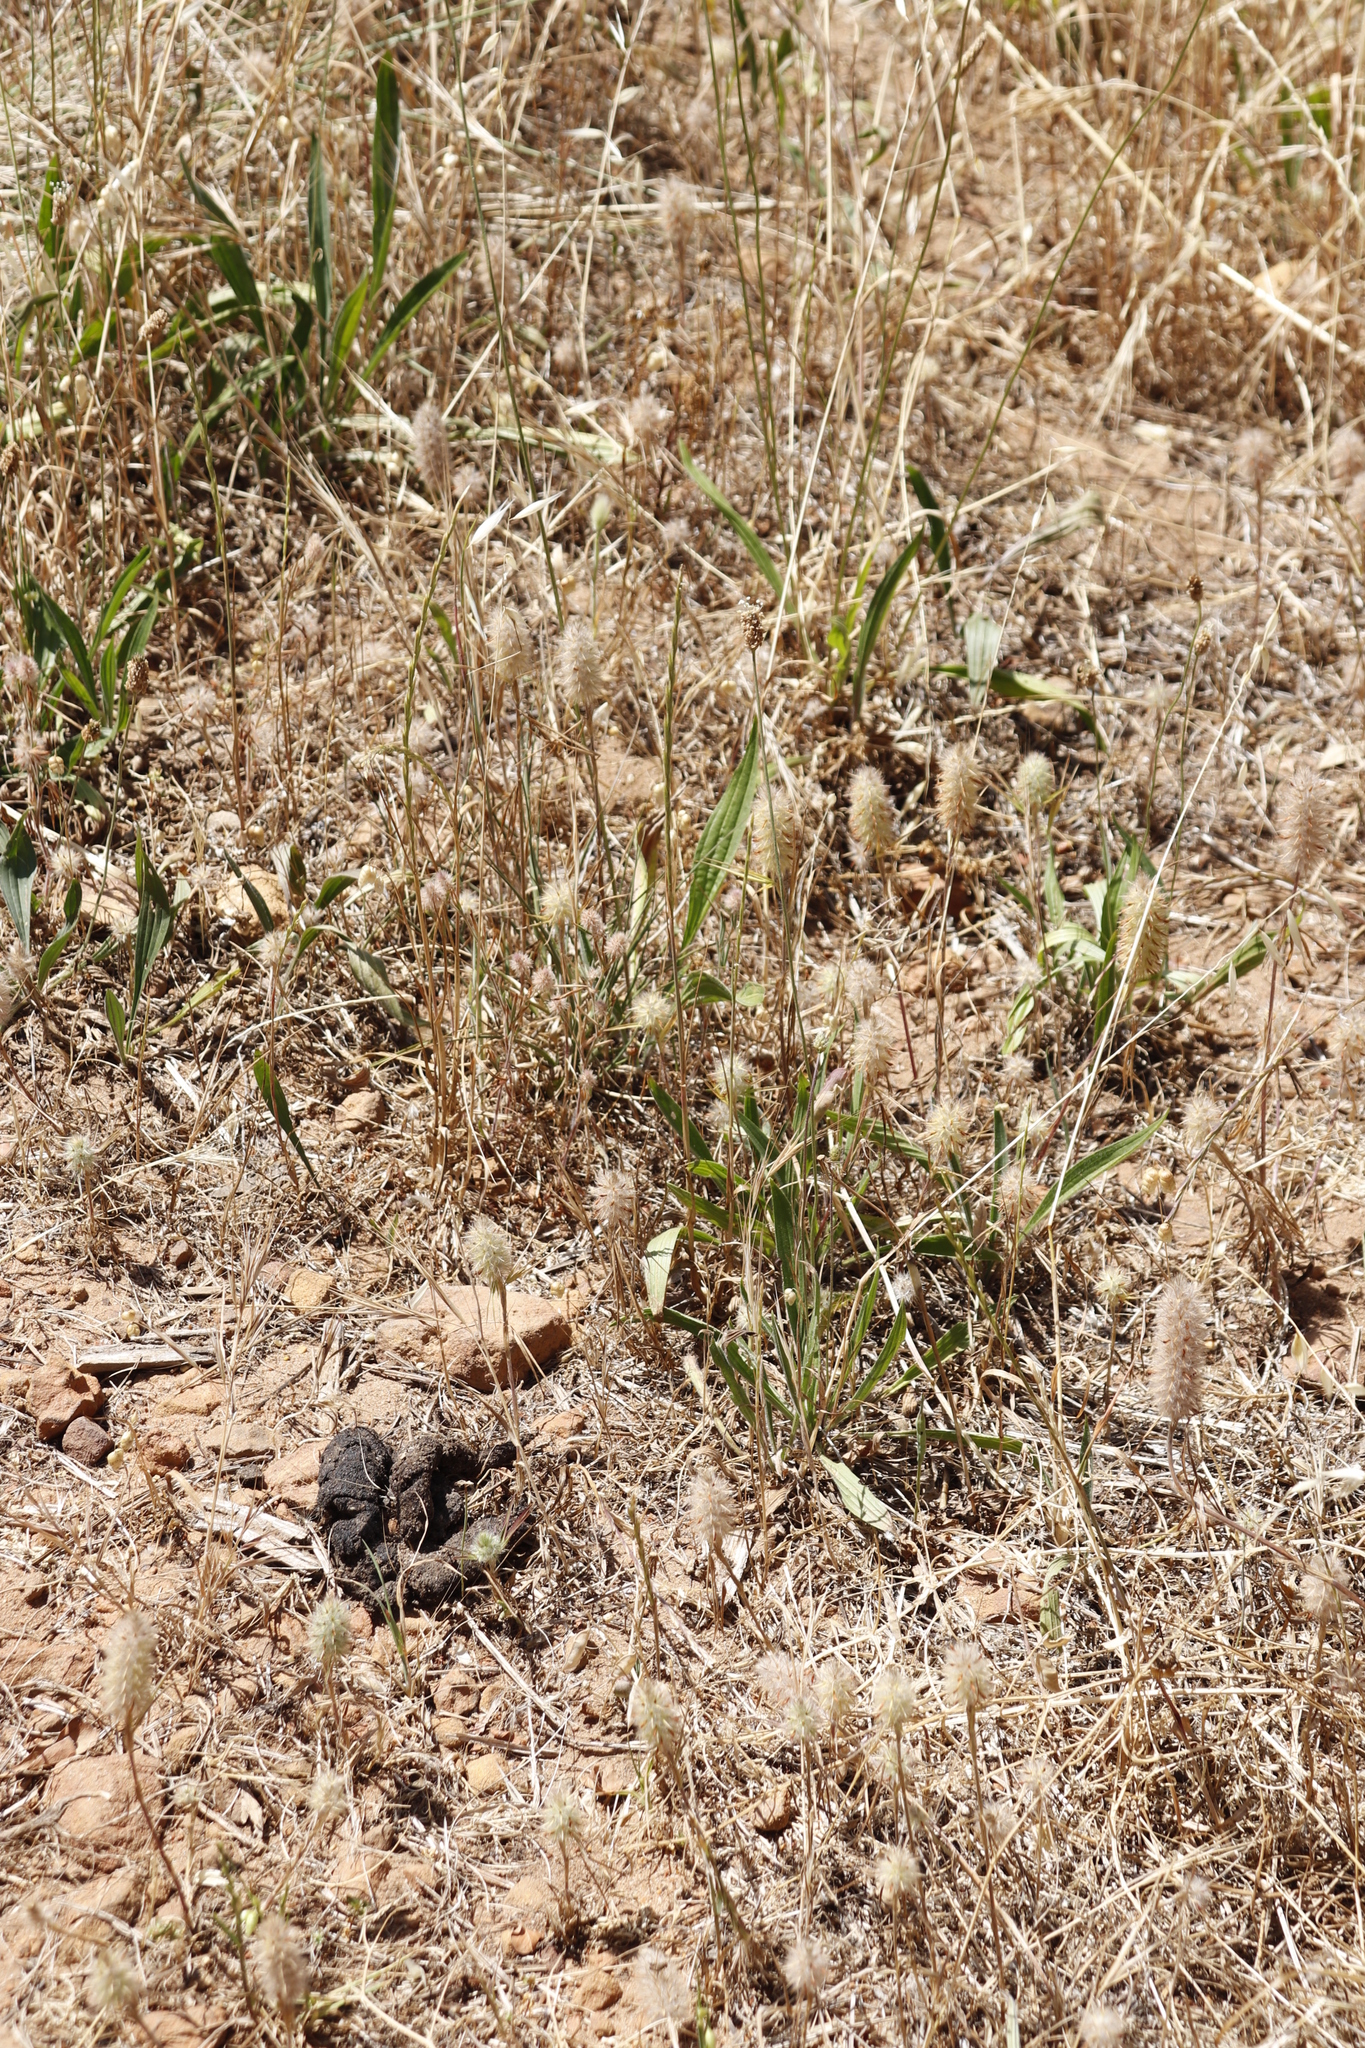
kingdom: Plantae
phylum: Tracheophyta
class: Magnoliopsida
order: Fabales
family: Fabaceae
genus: Trifolium
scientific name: Trifolium angustifolium
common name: Narrow clover
